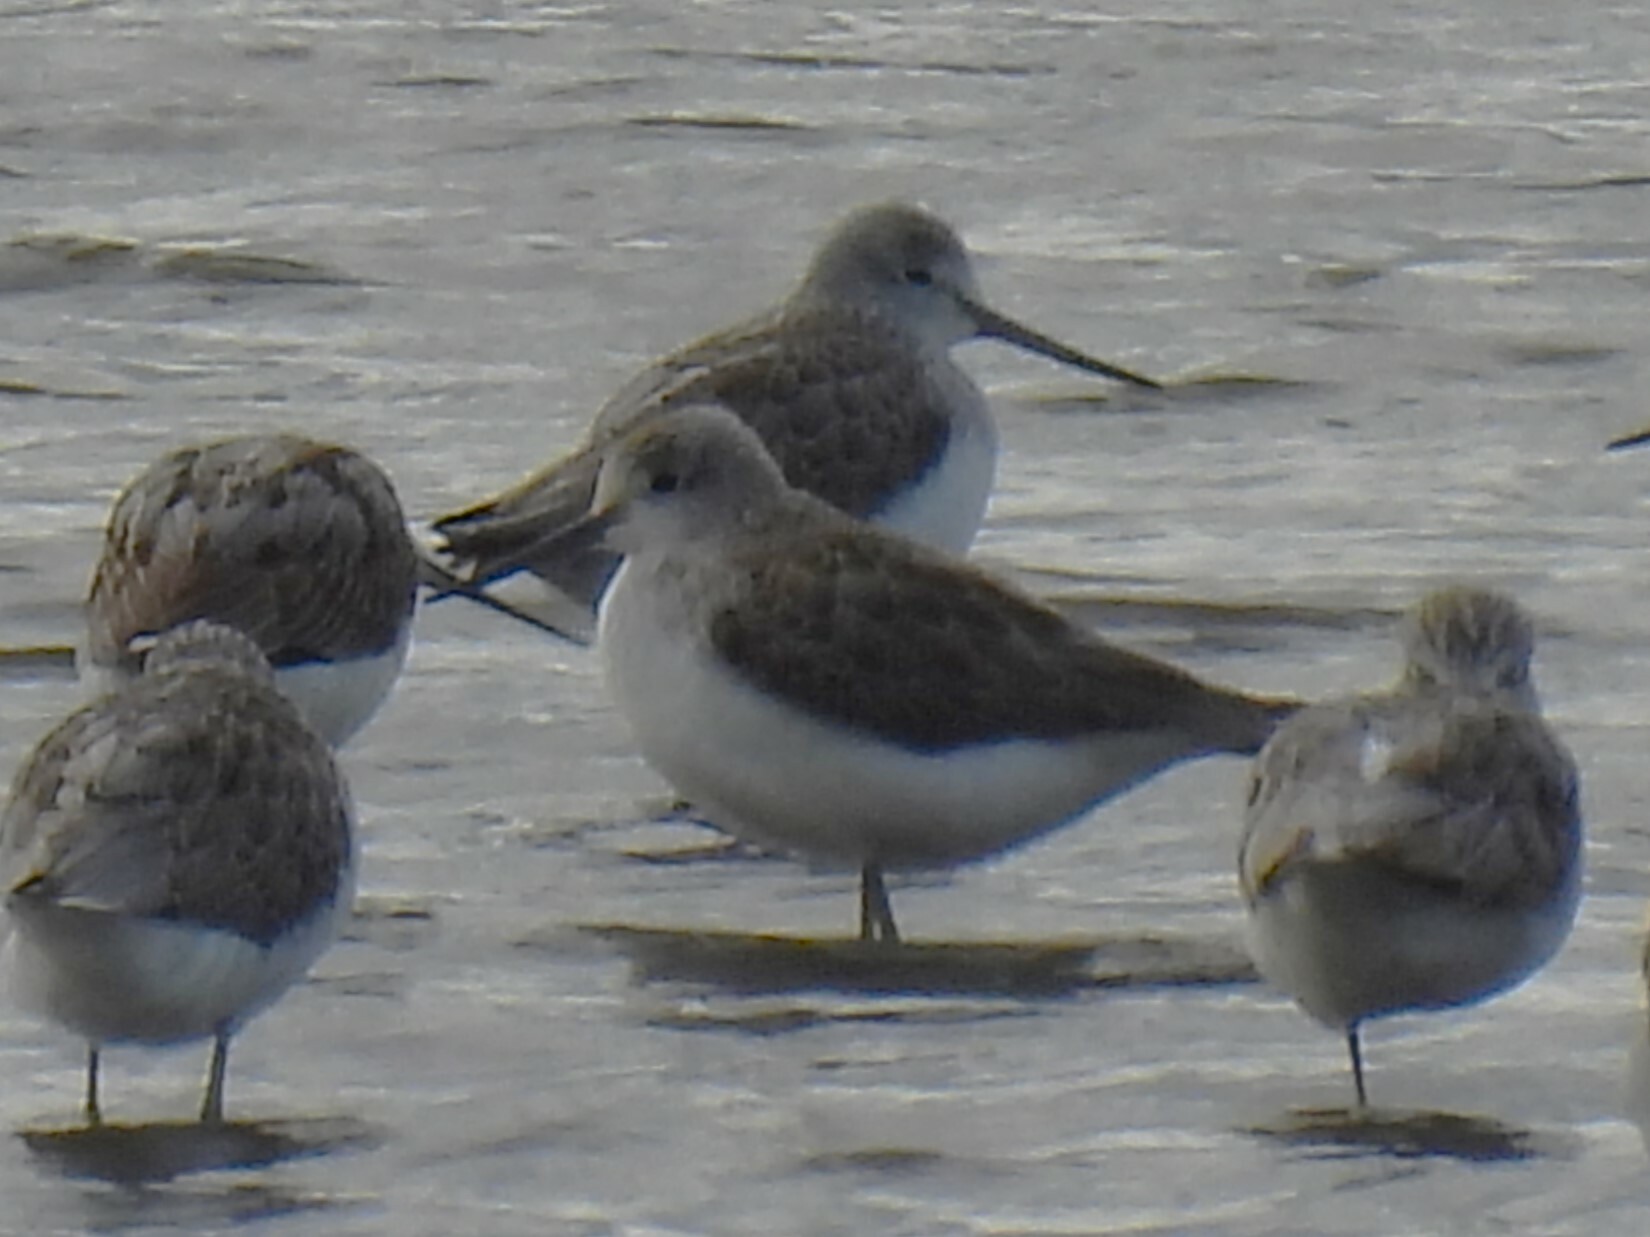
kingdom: Animalia
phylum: Chordata
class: Aves
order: Charadriiformes
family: Scolopacidae
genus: Tringa
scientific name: Tringa nebularia
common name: Common greenshank
